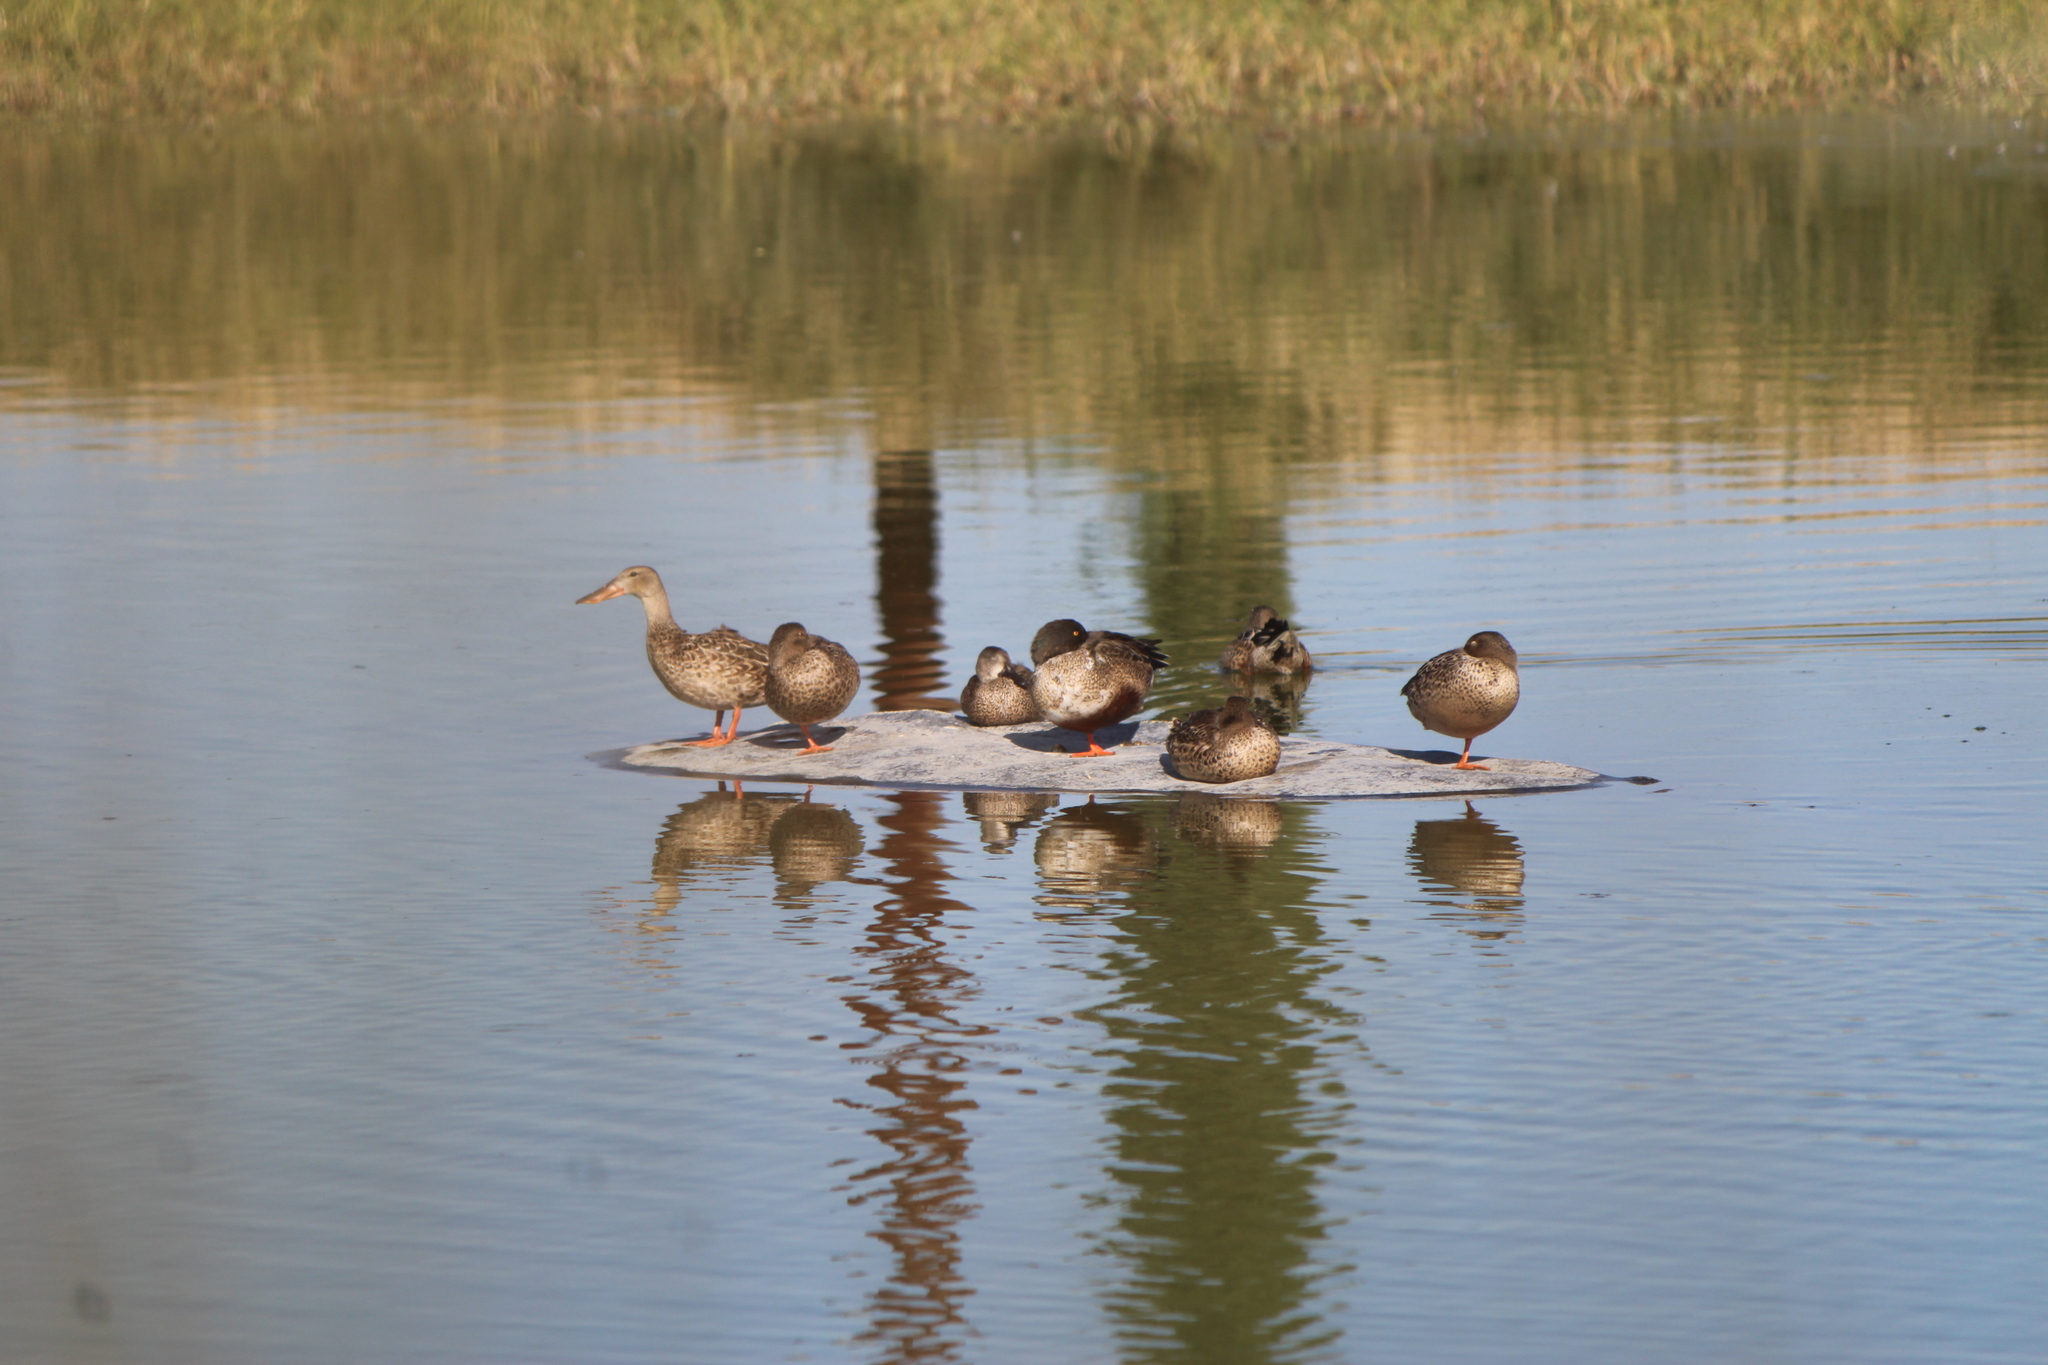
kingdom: Animalia
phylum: Chordata
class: Aves
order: Anseriformes
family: Anatidae
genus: Spatula
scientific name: Spatula clypeata
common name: Northern shoveler
